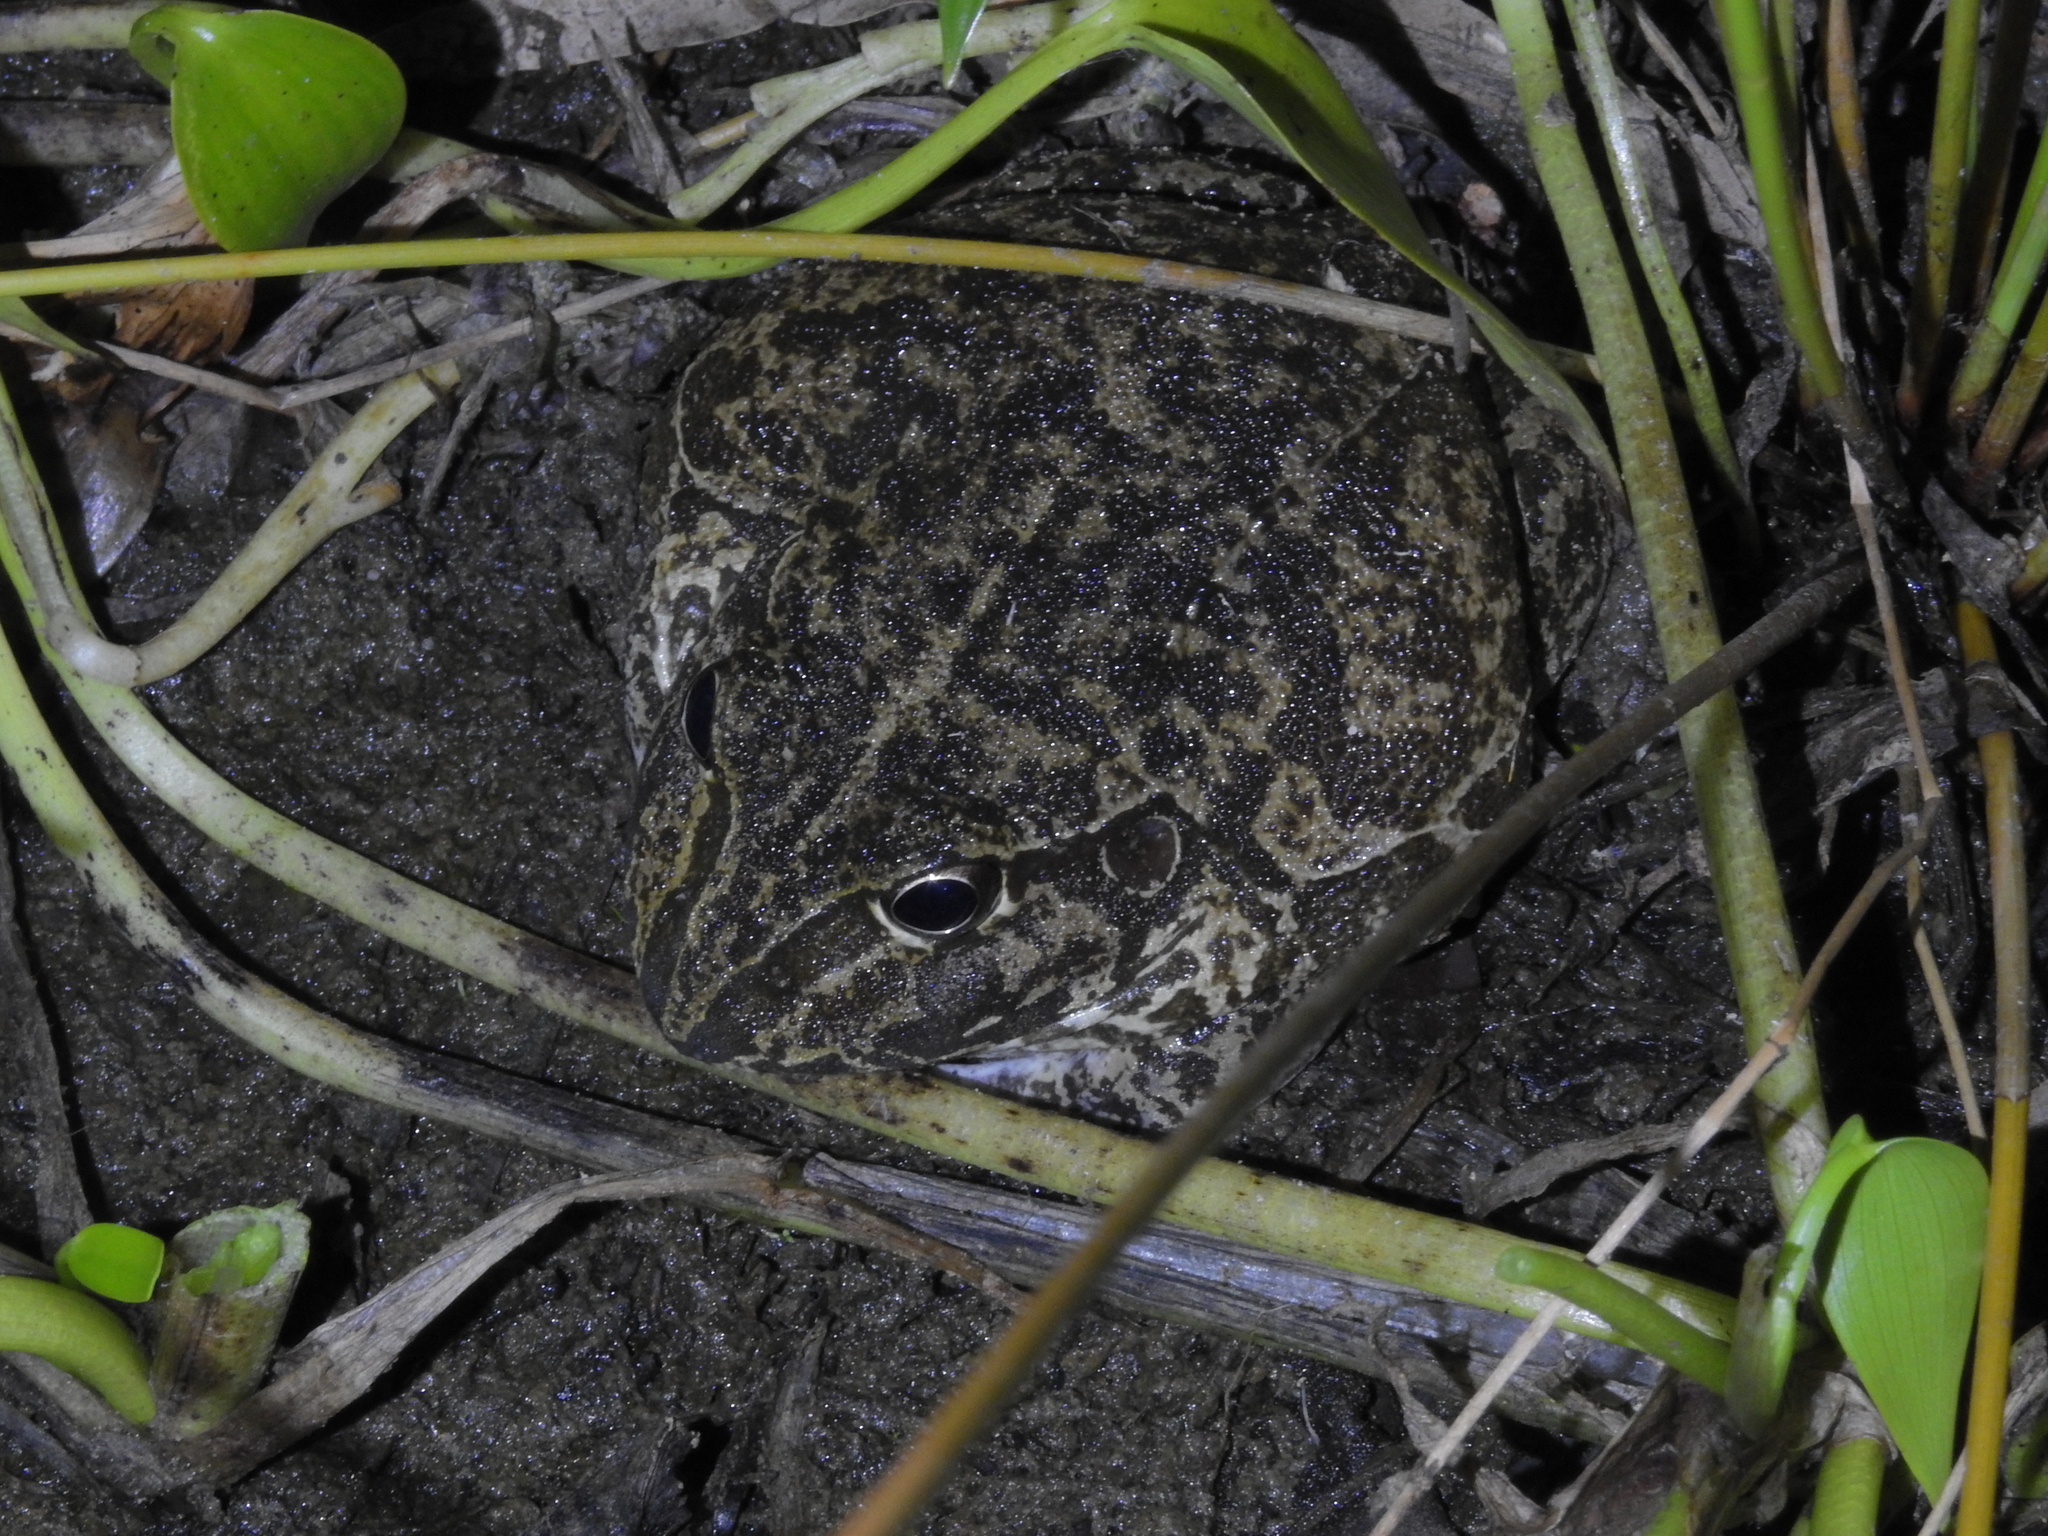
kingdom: Animalia
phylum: Chordata
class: Amphibia
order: Anura
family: Pelodryadidae
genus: Ranoidea
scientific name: Ranoidea novaehollandiae
